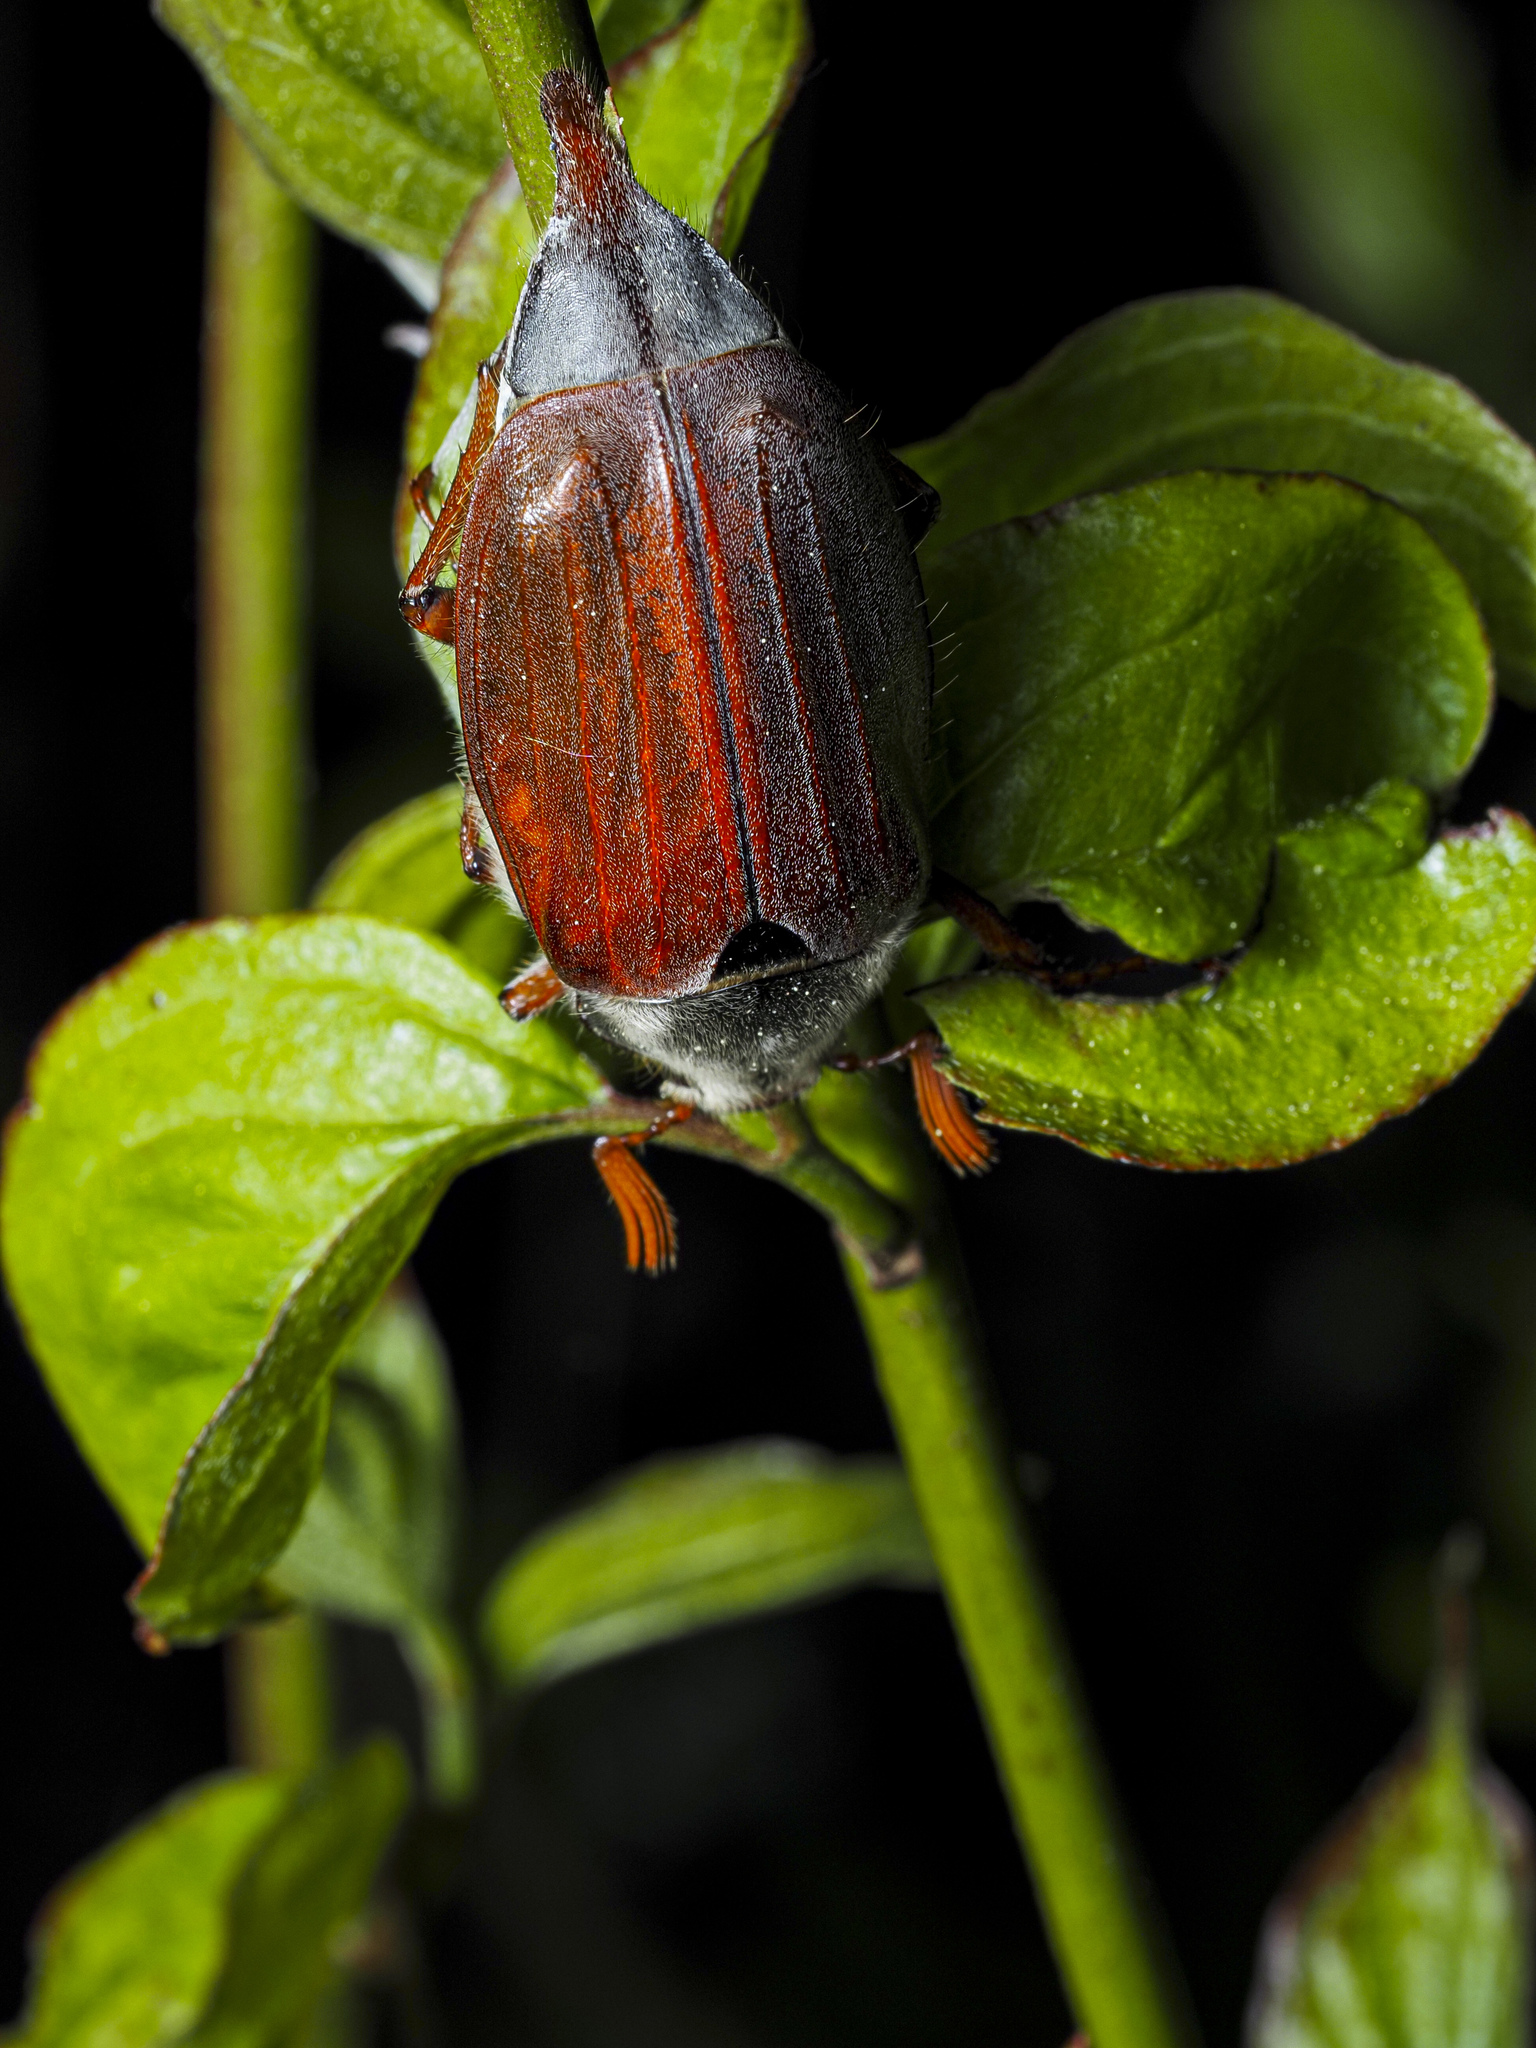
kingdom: Animalia
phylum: Arthropoda
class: Insecta
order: Coleoptera
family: Scarabaeidae
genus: Melolontha
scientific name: Melolontha melolontha
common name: Cockchafer maybeetle
